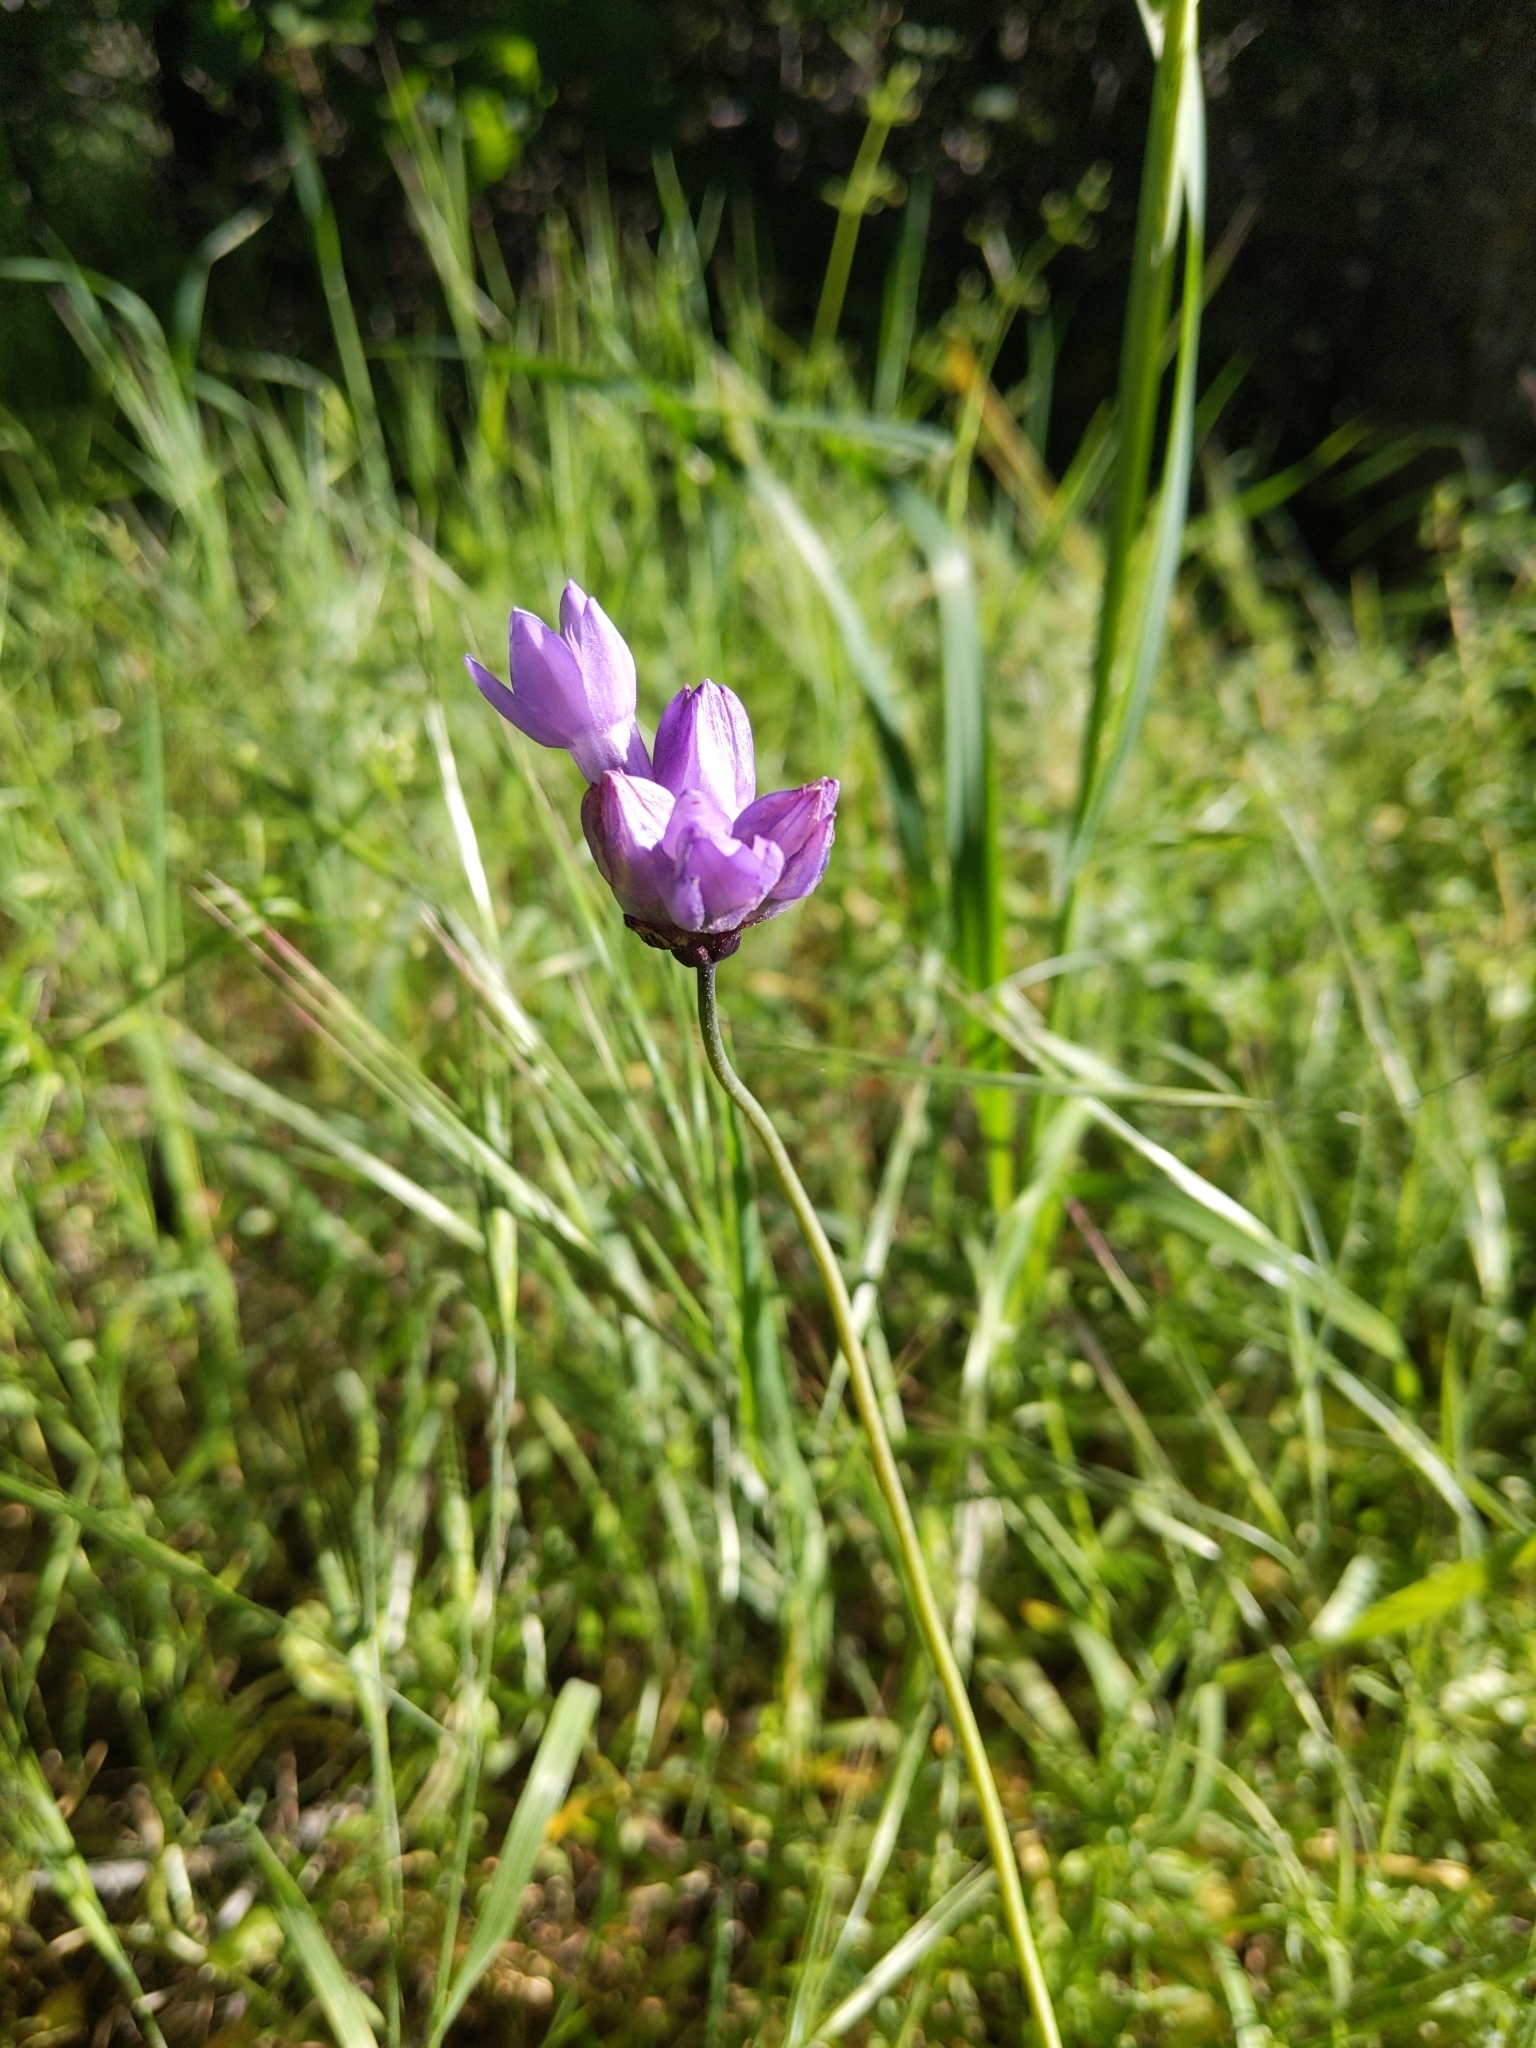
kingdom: Plantae
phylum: Tracheophyta
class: Liliopsida
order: Asparagales
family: Asparagaceae
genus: Dipterostemon
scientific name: Dipterostemon capitatus
